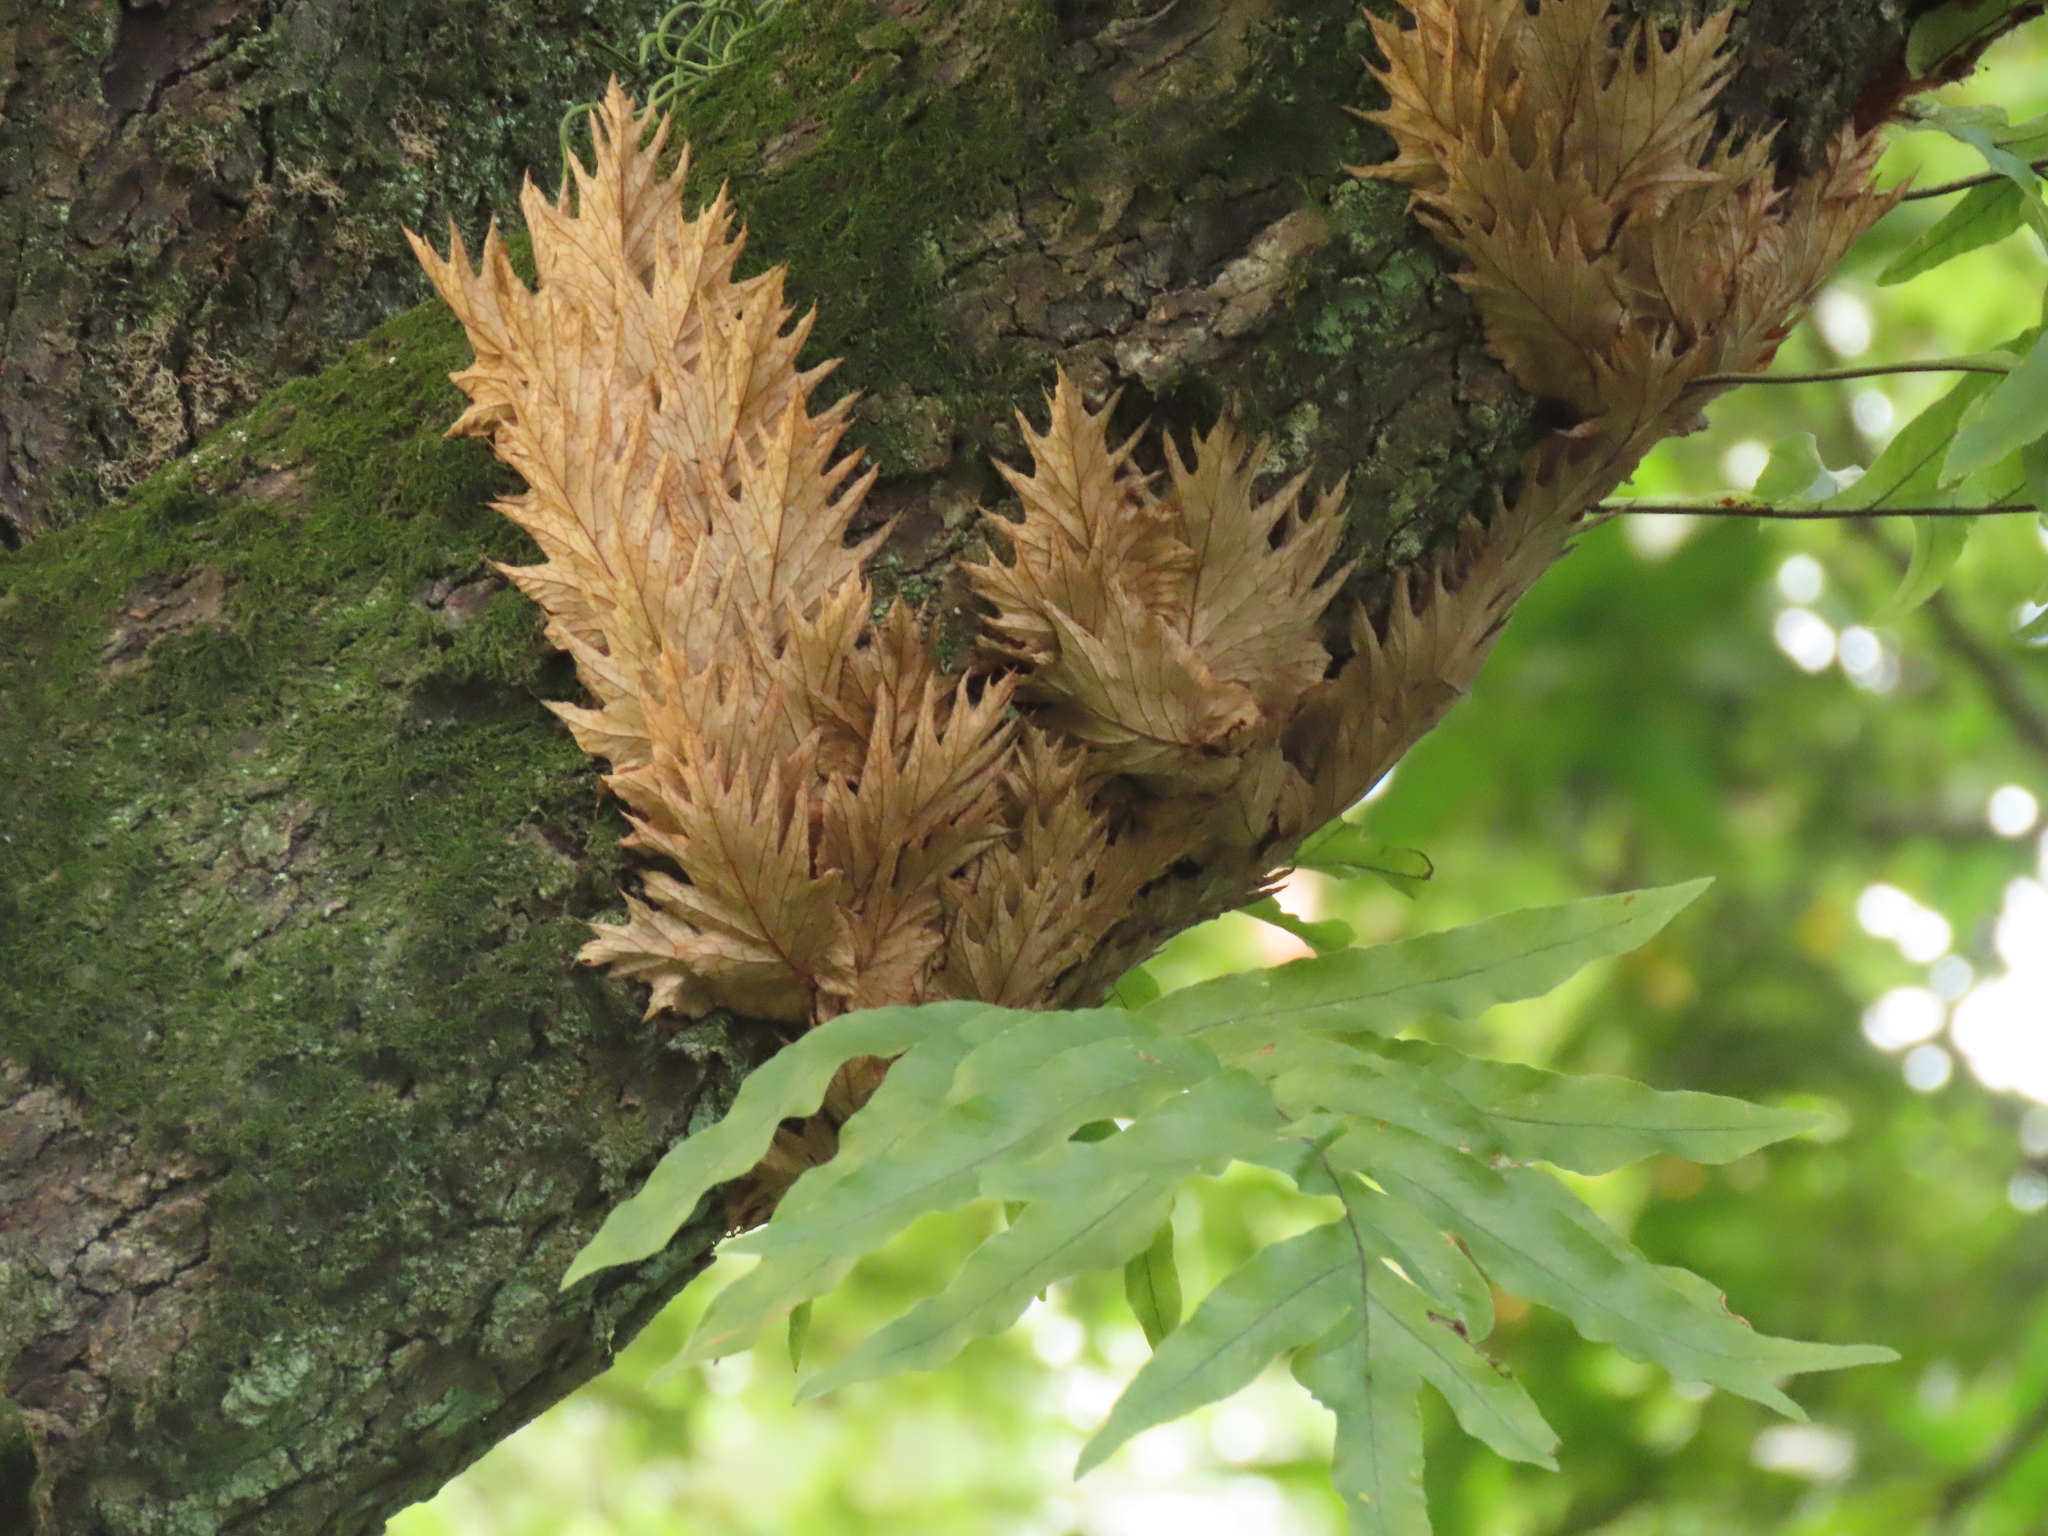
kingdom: Plantae
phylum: Tracheophyta
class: Polypodiopsida
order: Polypodiales
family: Polypodiaceae
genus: Drynaria
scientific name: Drynaria roosii
